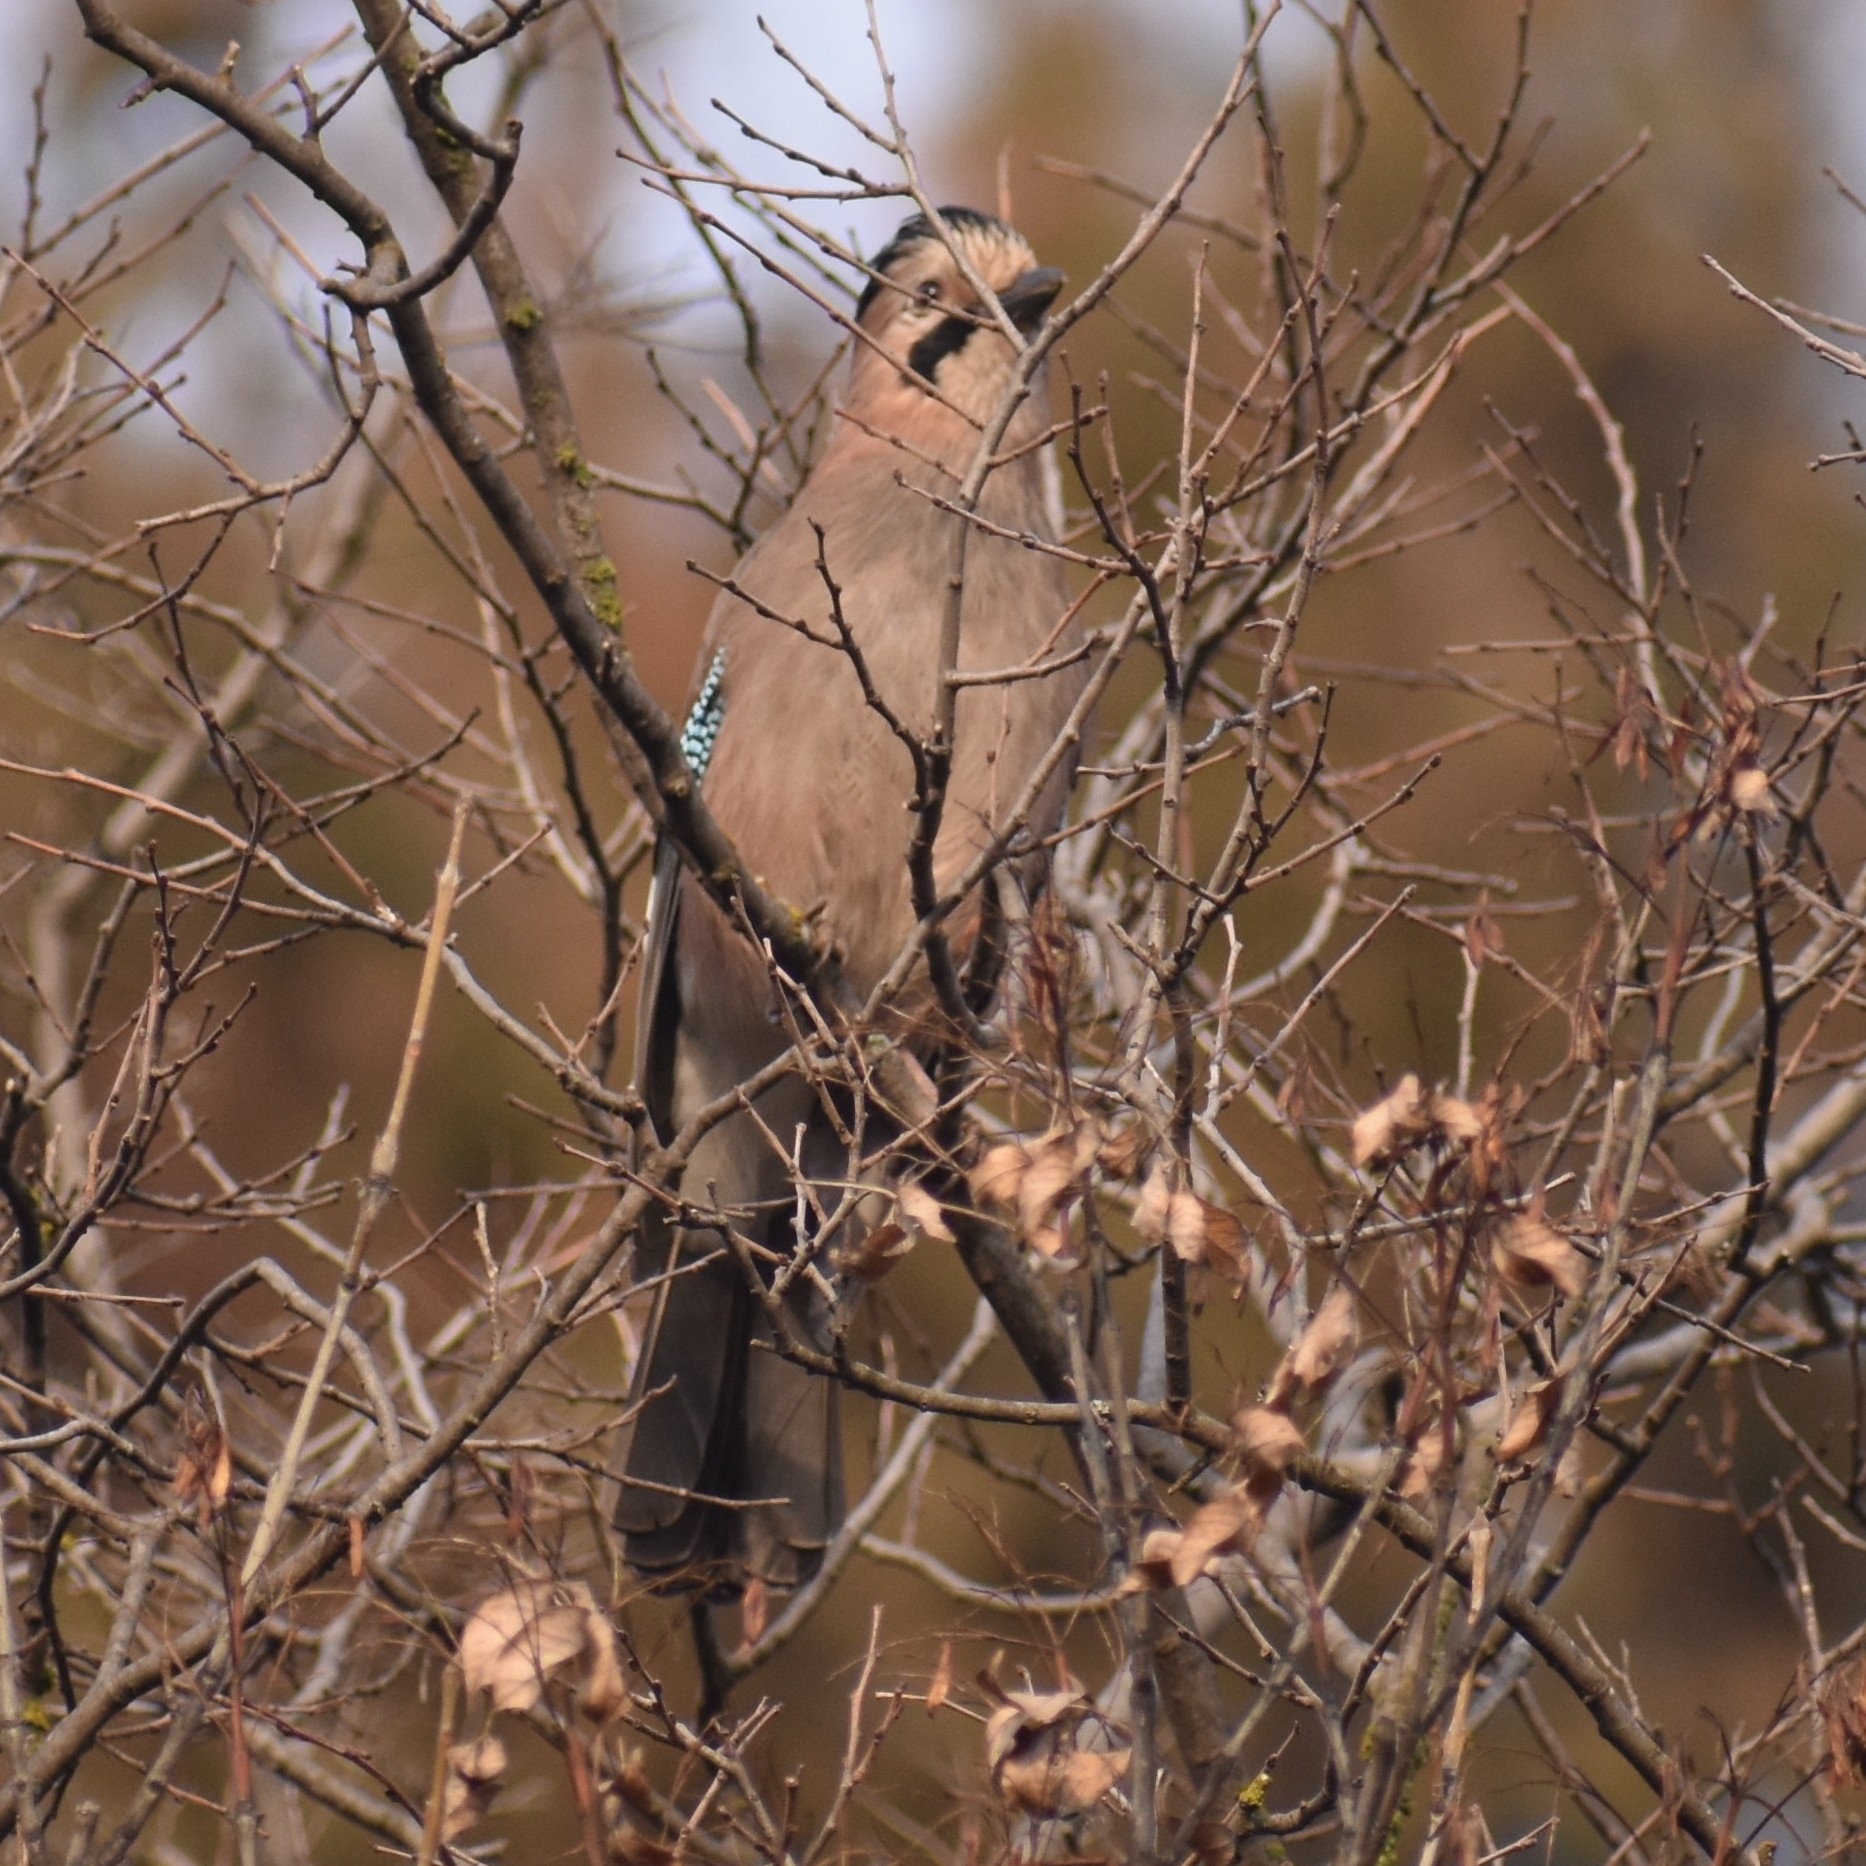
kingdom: Animalia
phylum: Chordata
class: Aves
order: Passeriformes
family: Corvidae
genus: Garrulus
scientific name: Garrulus glandarius
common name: Eurasian jay
